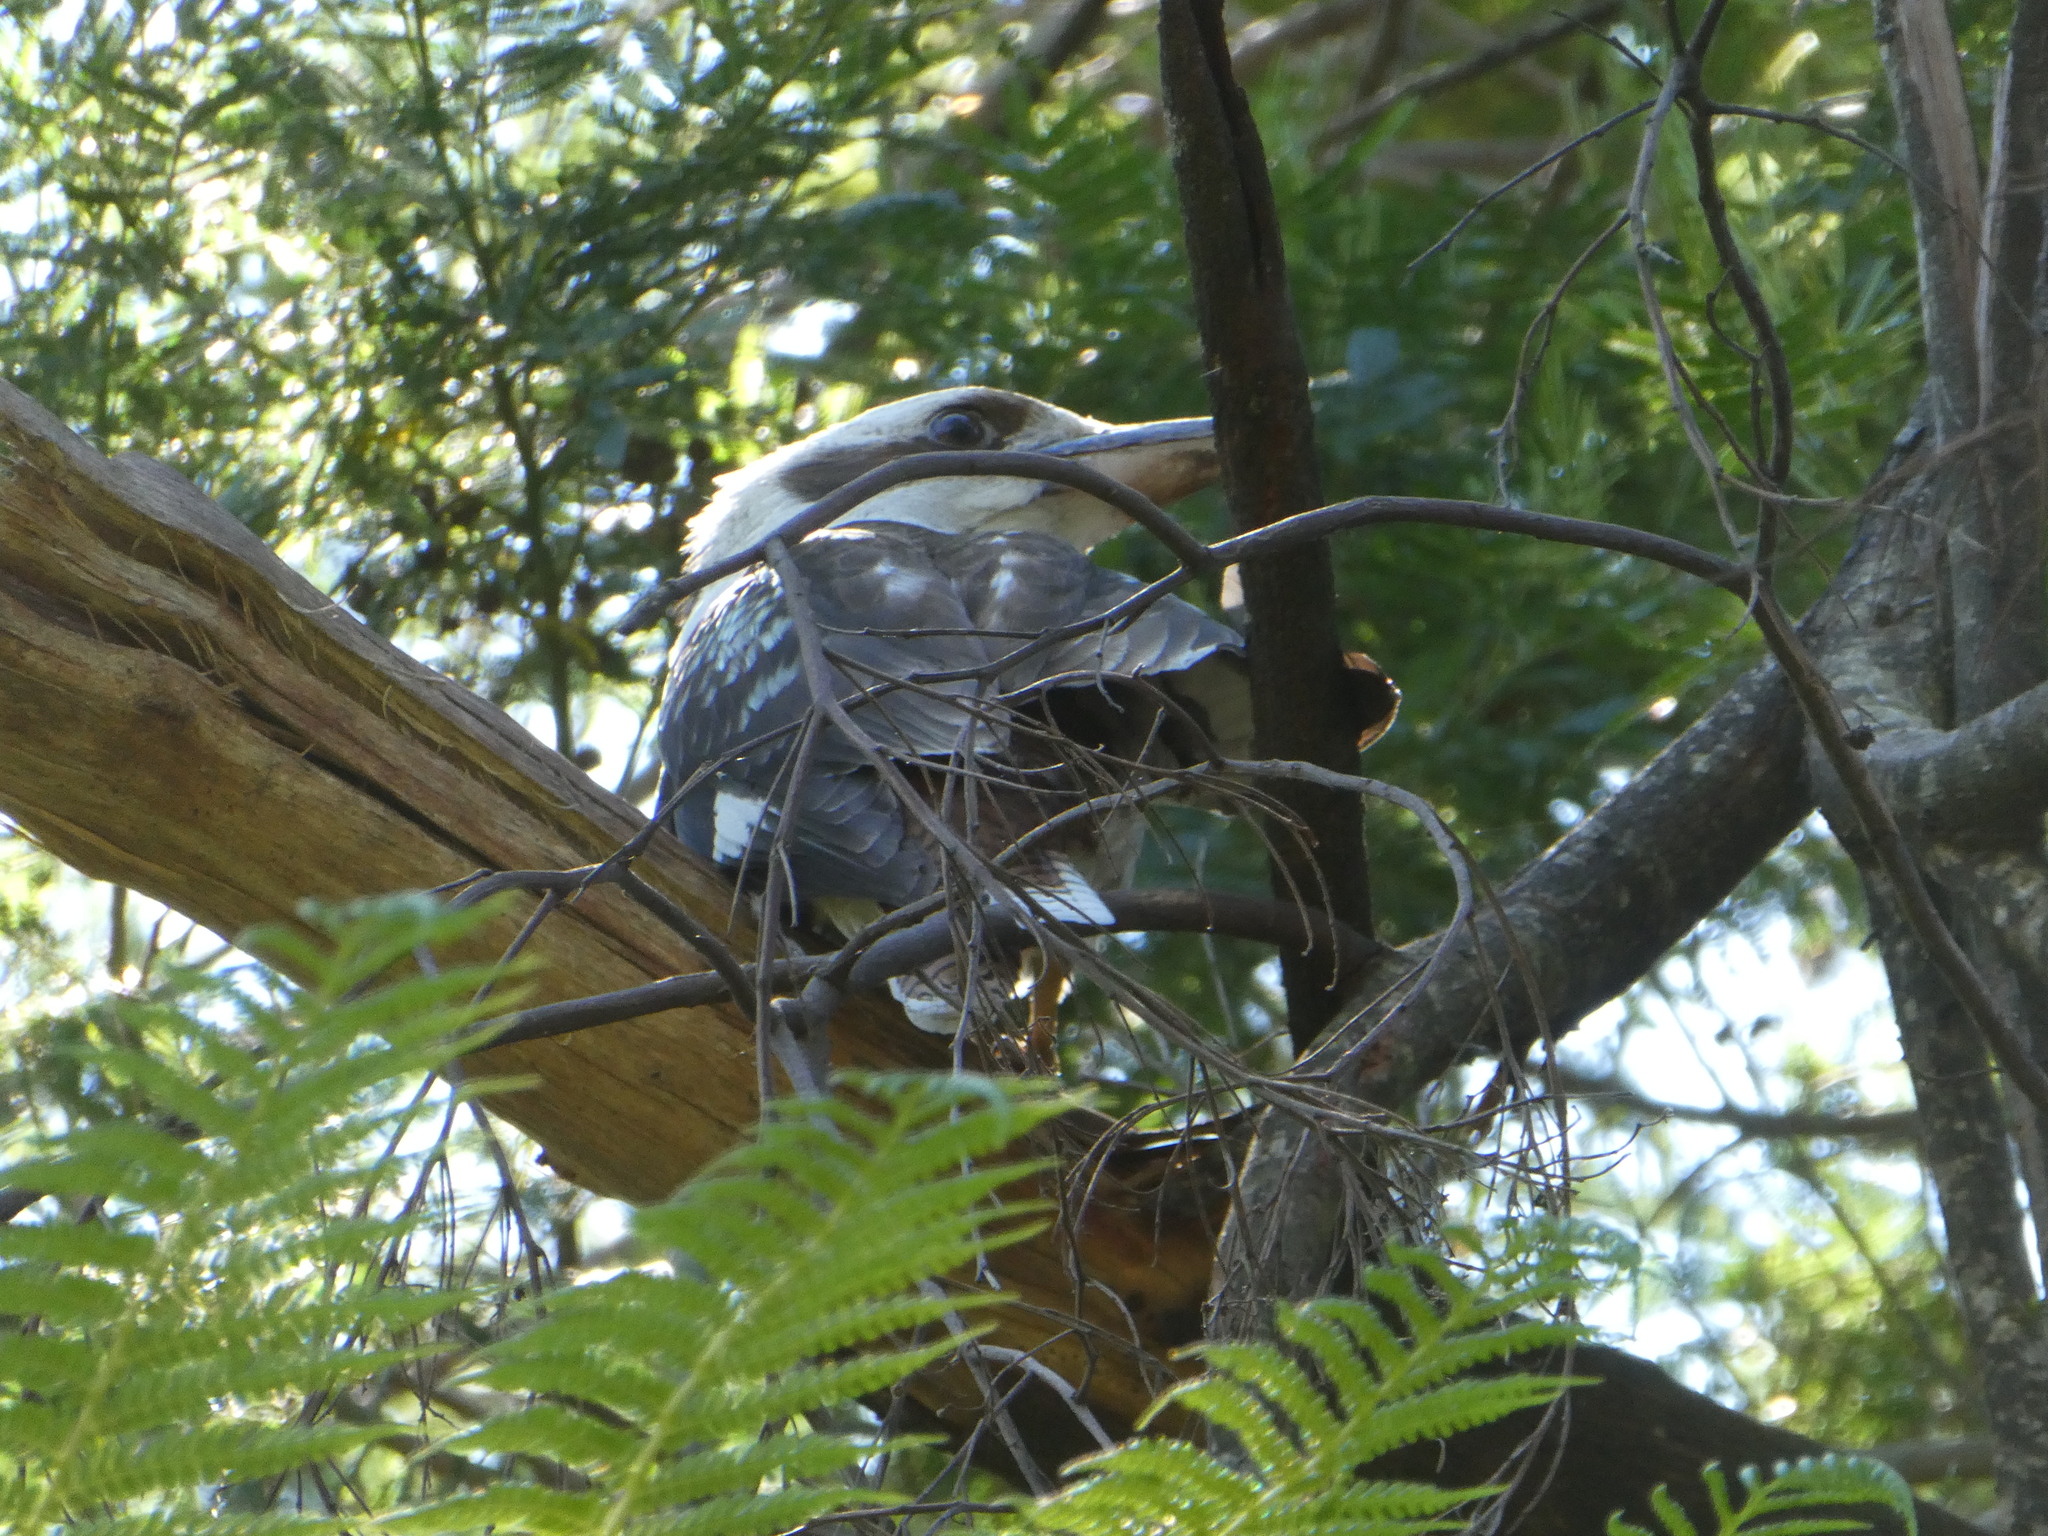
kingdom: Animalia
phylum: Chordata
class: Aves
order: Coraciiformes
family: Alcedinidae
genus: Dacelo
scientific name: Dacelo novaeguineae
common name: Laughing kookaburra
